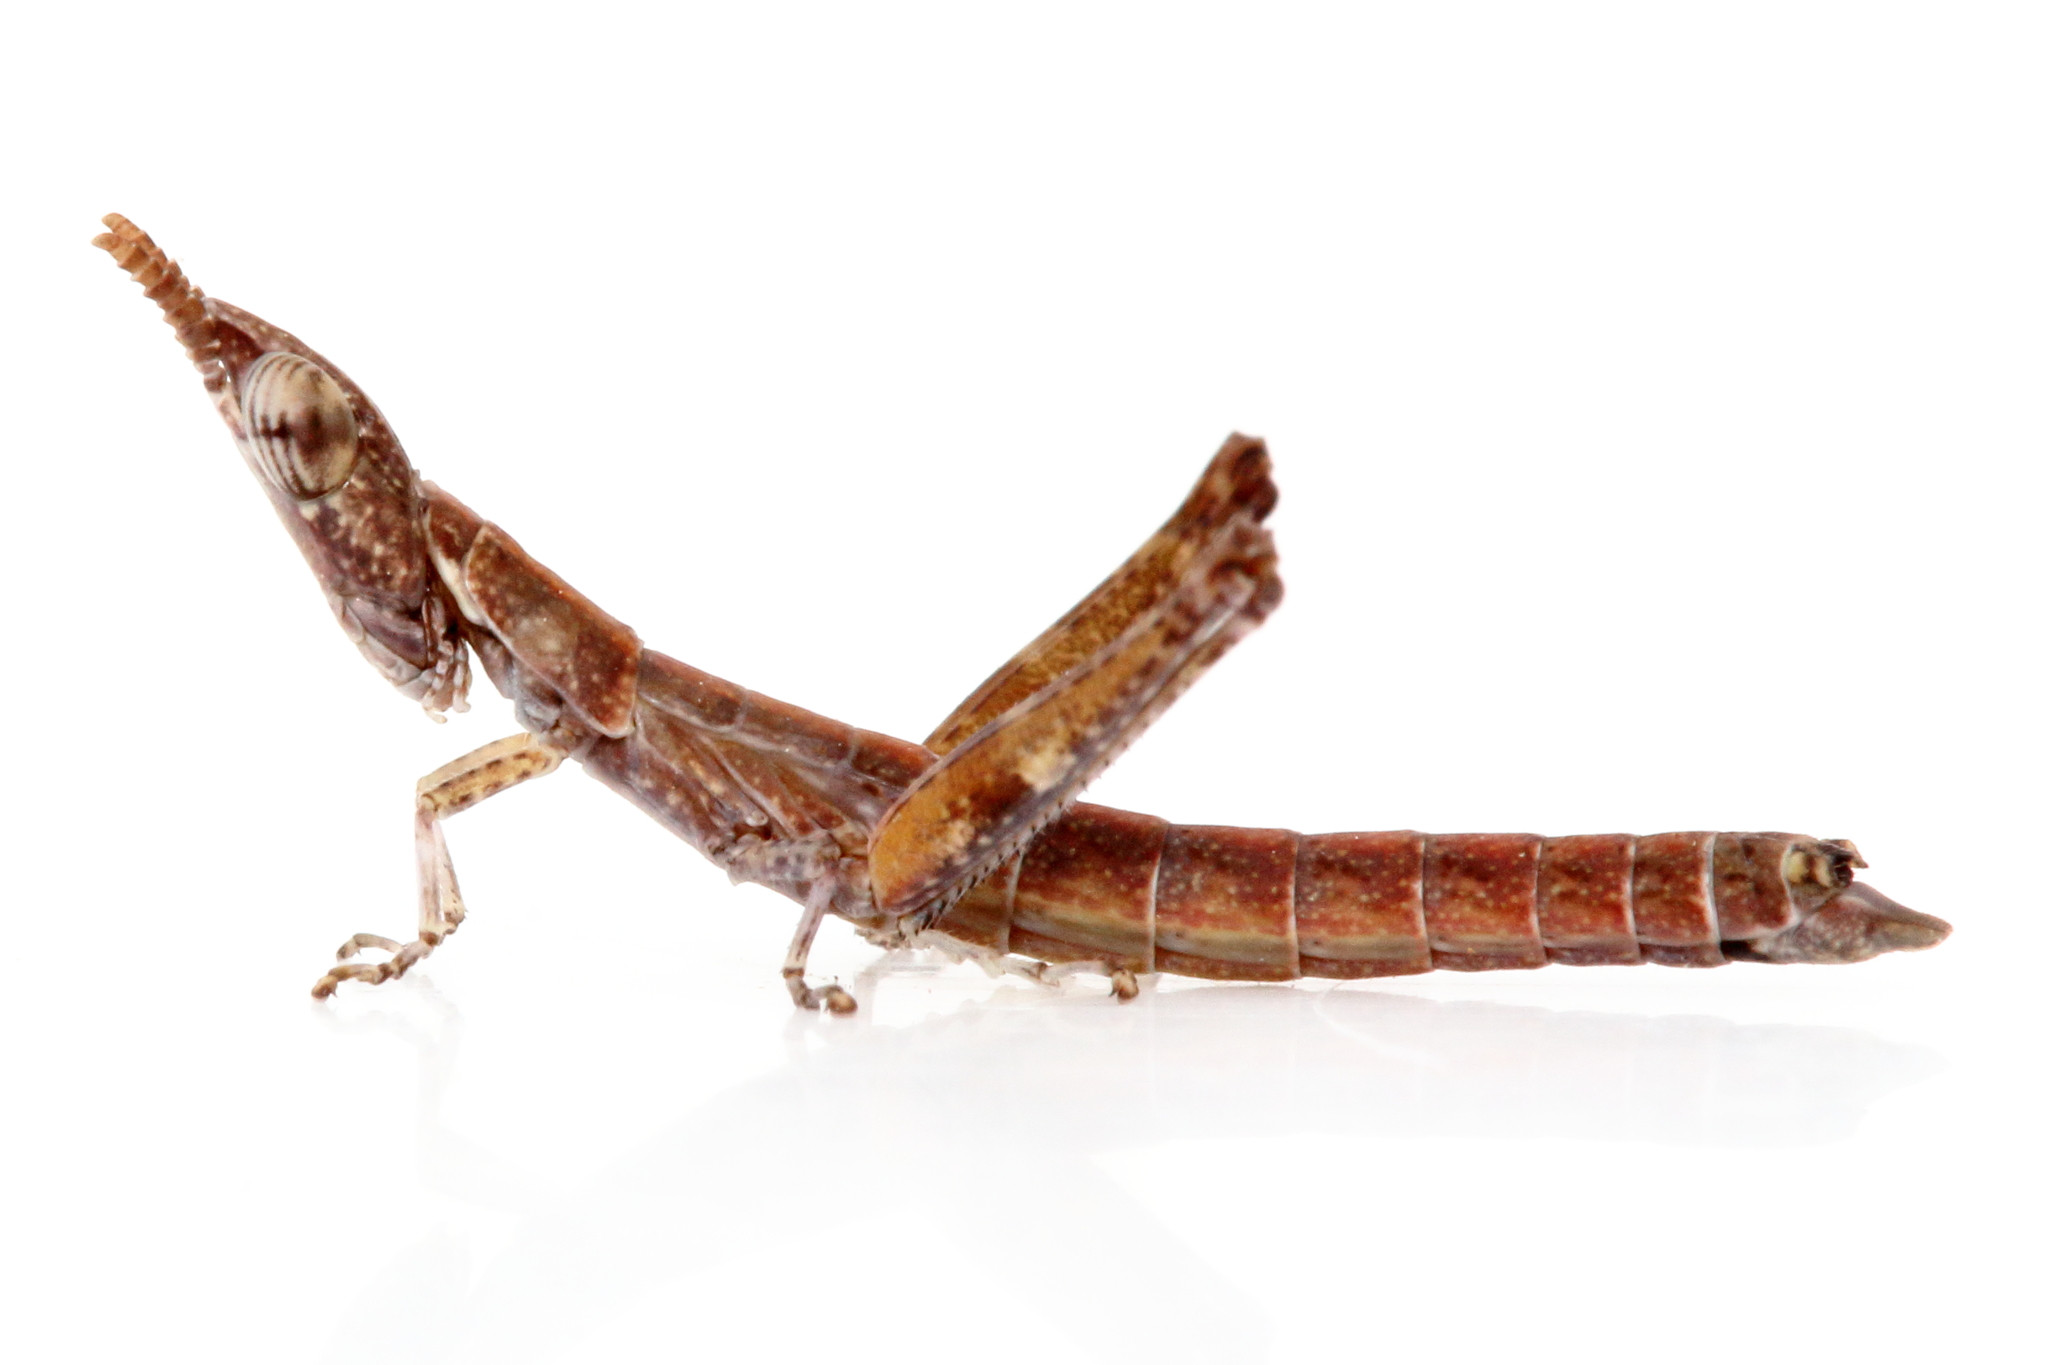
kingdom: Animalia
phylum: Arthropoda
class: Insecta
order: Orthoptera
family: Morabidae
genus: Micromeeka
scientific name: Micromeeka minuta
